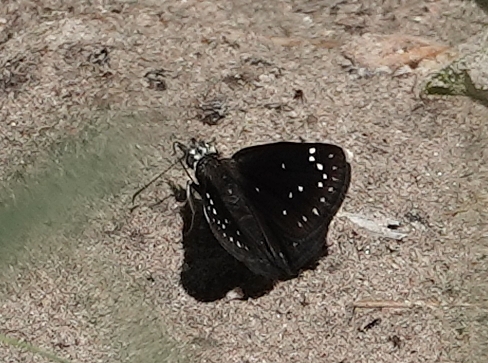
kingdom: Animalia
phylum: Arthropoda
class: Insecta
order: Lepidoptera
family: Hesperiidae
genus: Pholisora
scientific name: Pholisora catullus
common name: Common sootywing
